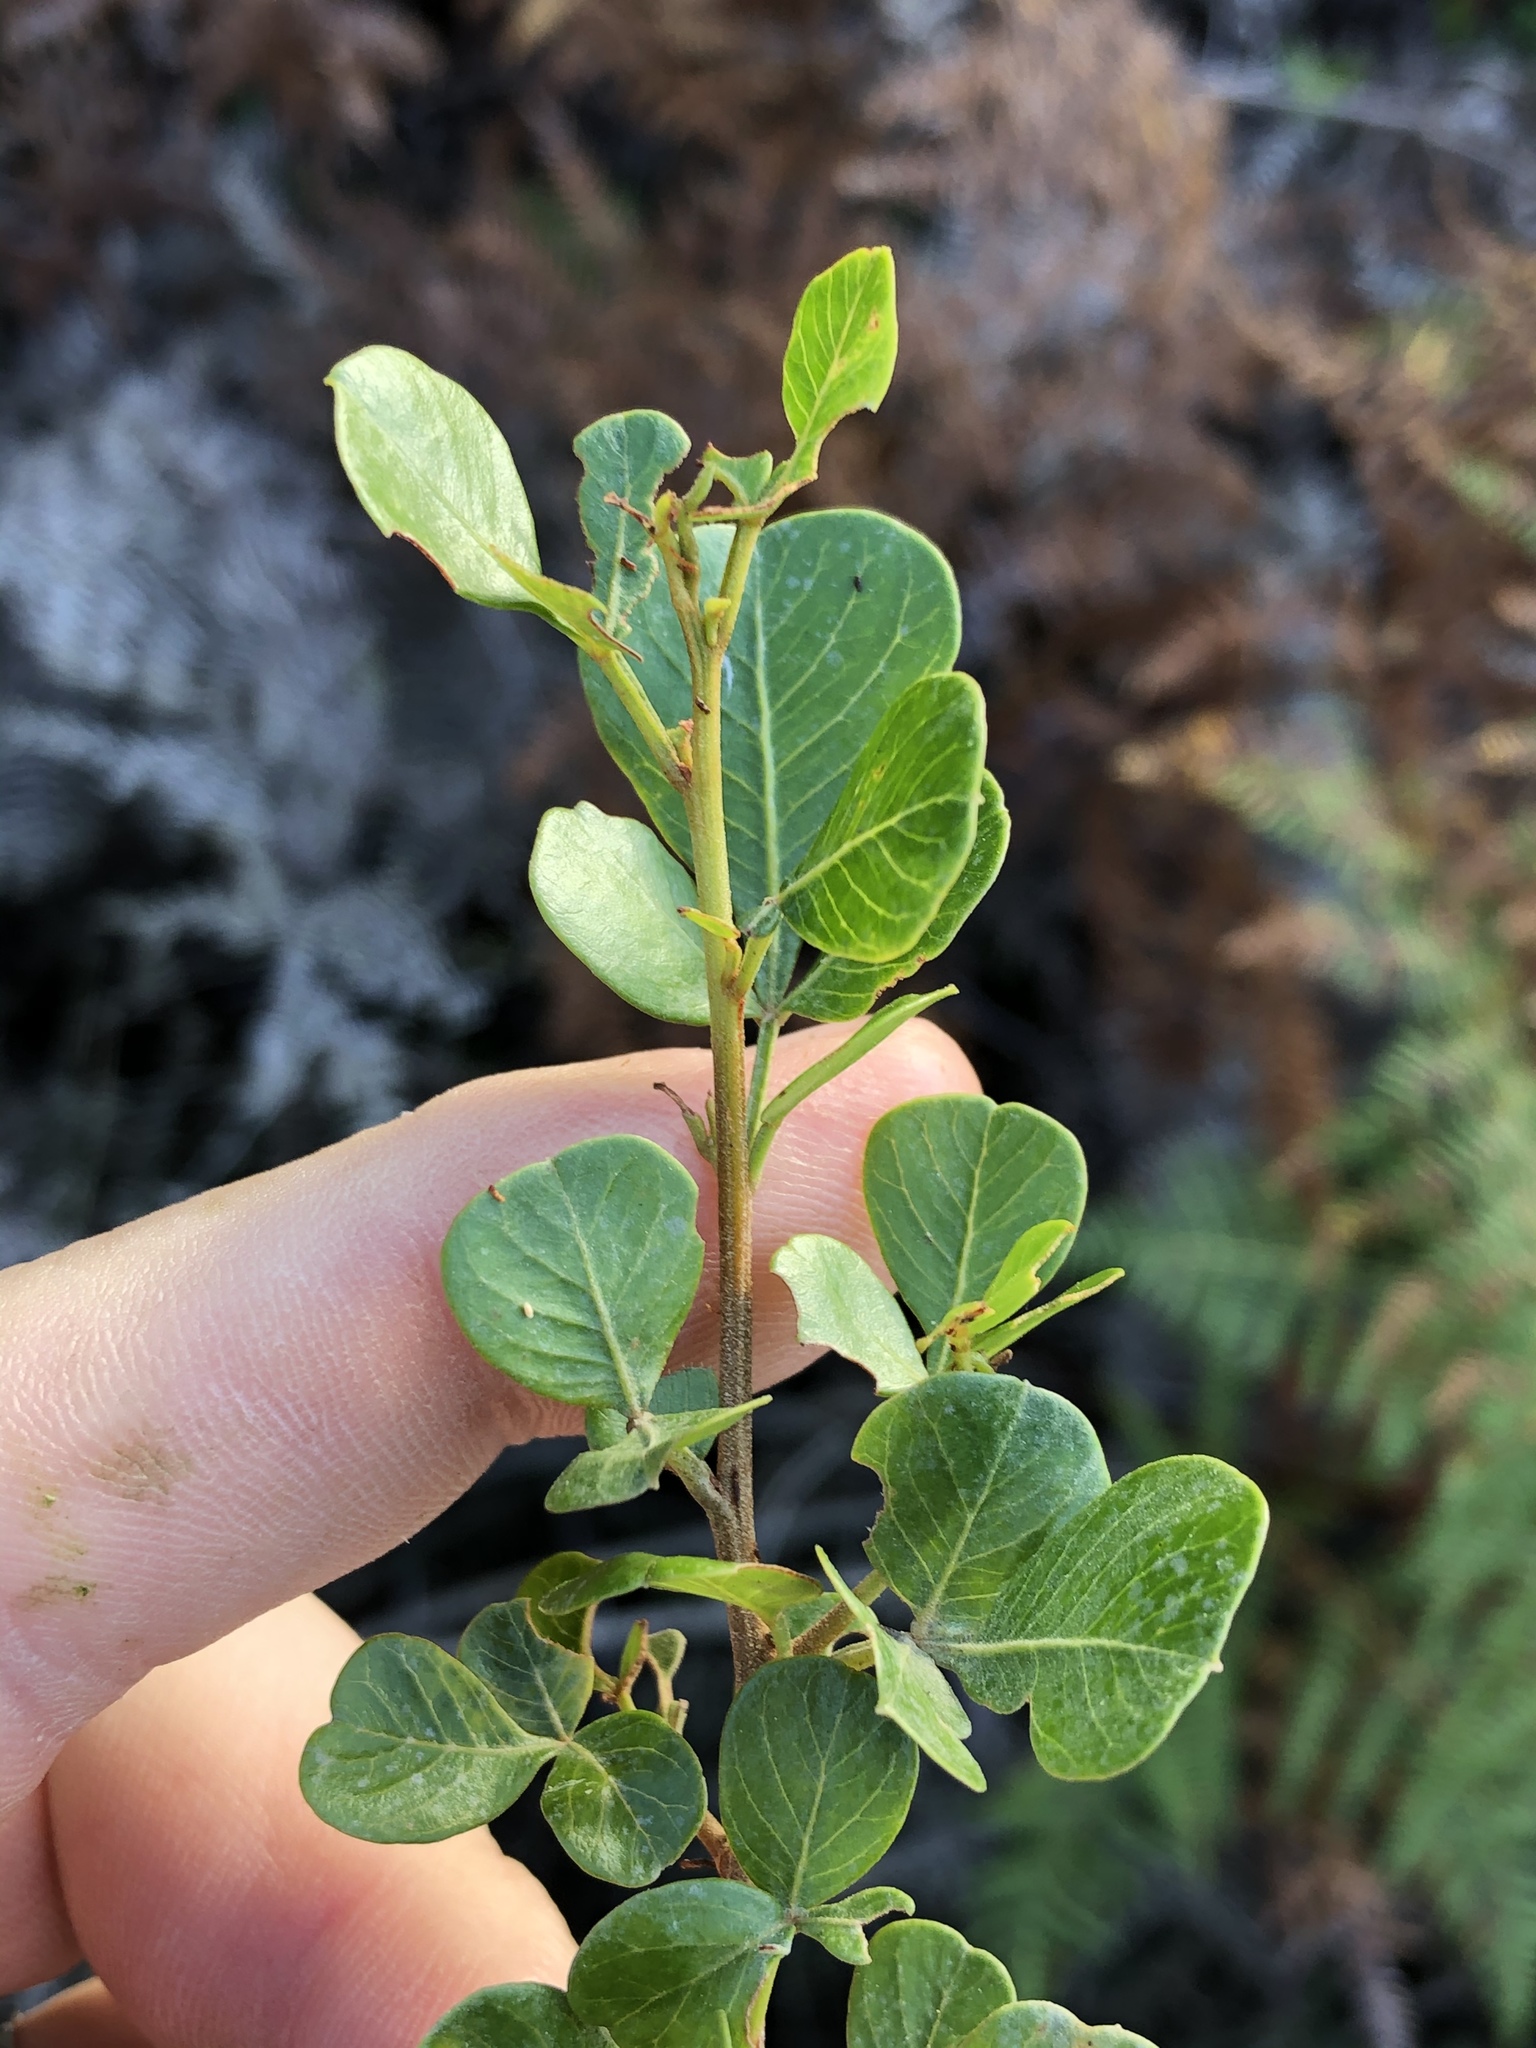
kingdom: Plantae
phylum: Tracheophyta
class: Magnoliopsida
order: Sapindales
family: Anacardiaceae
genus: Searsia
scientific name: Searsia glauca
